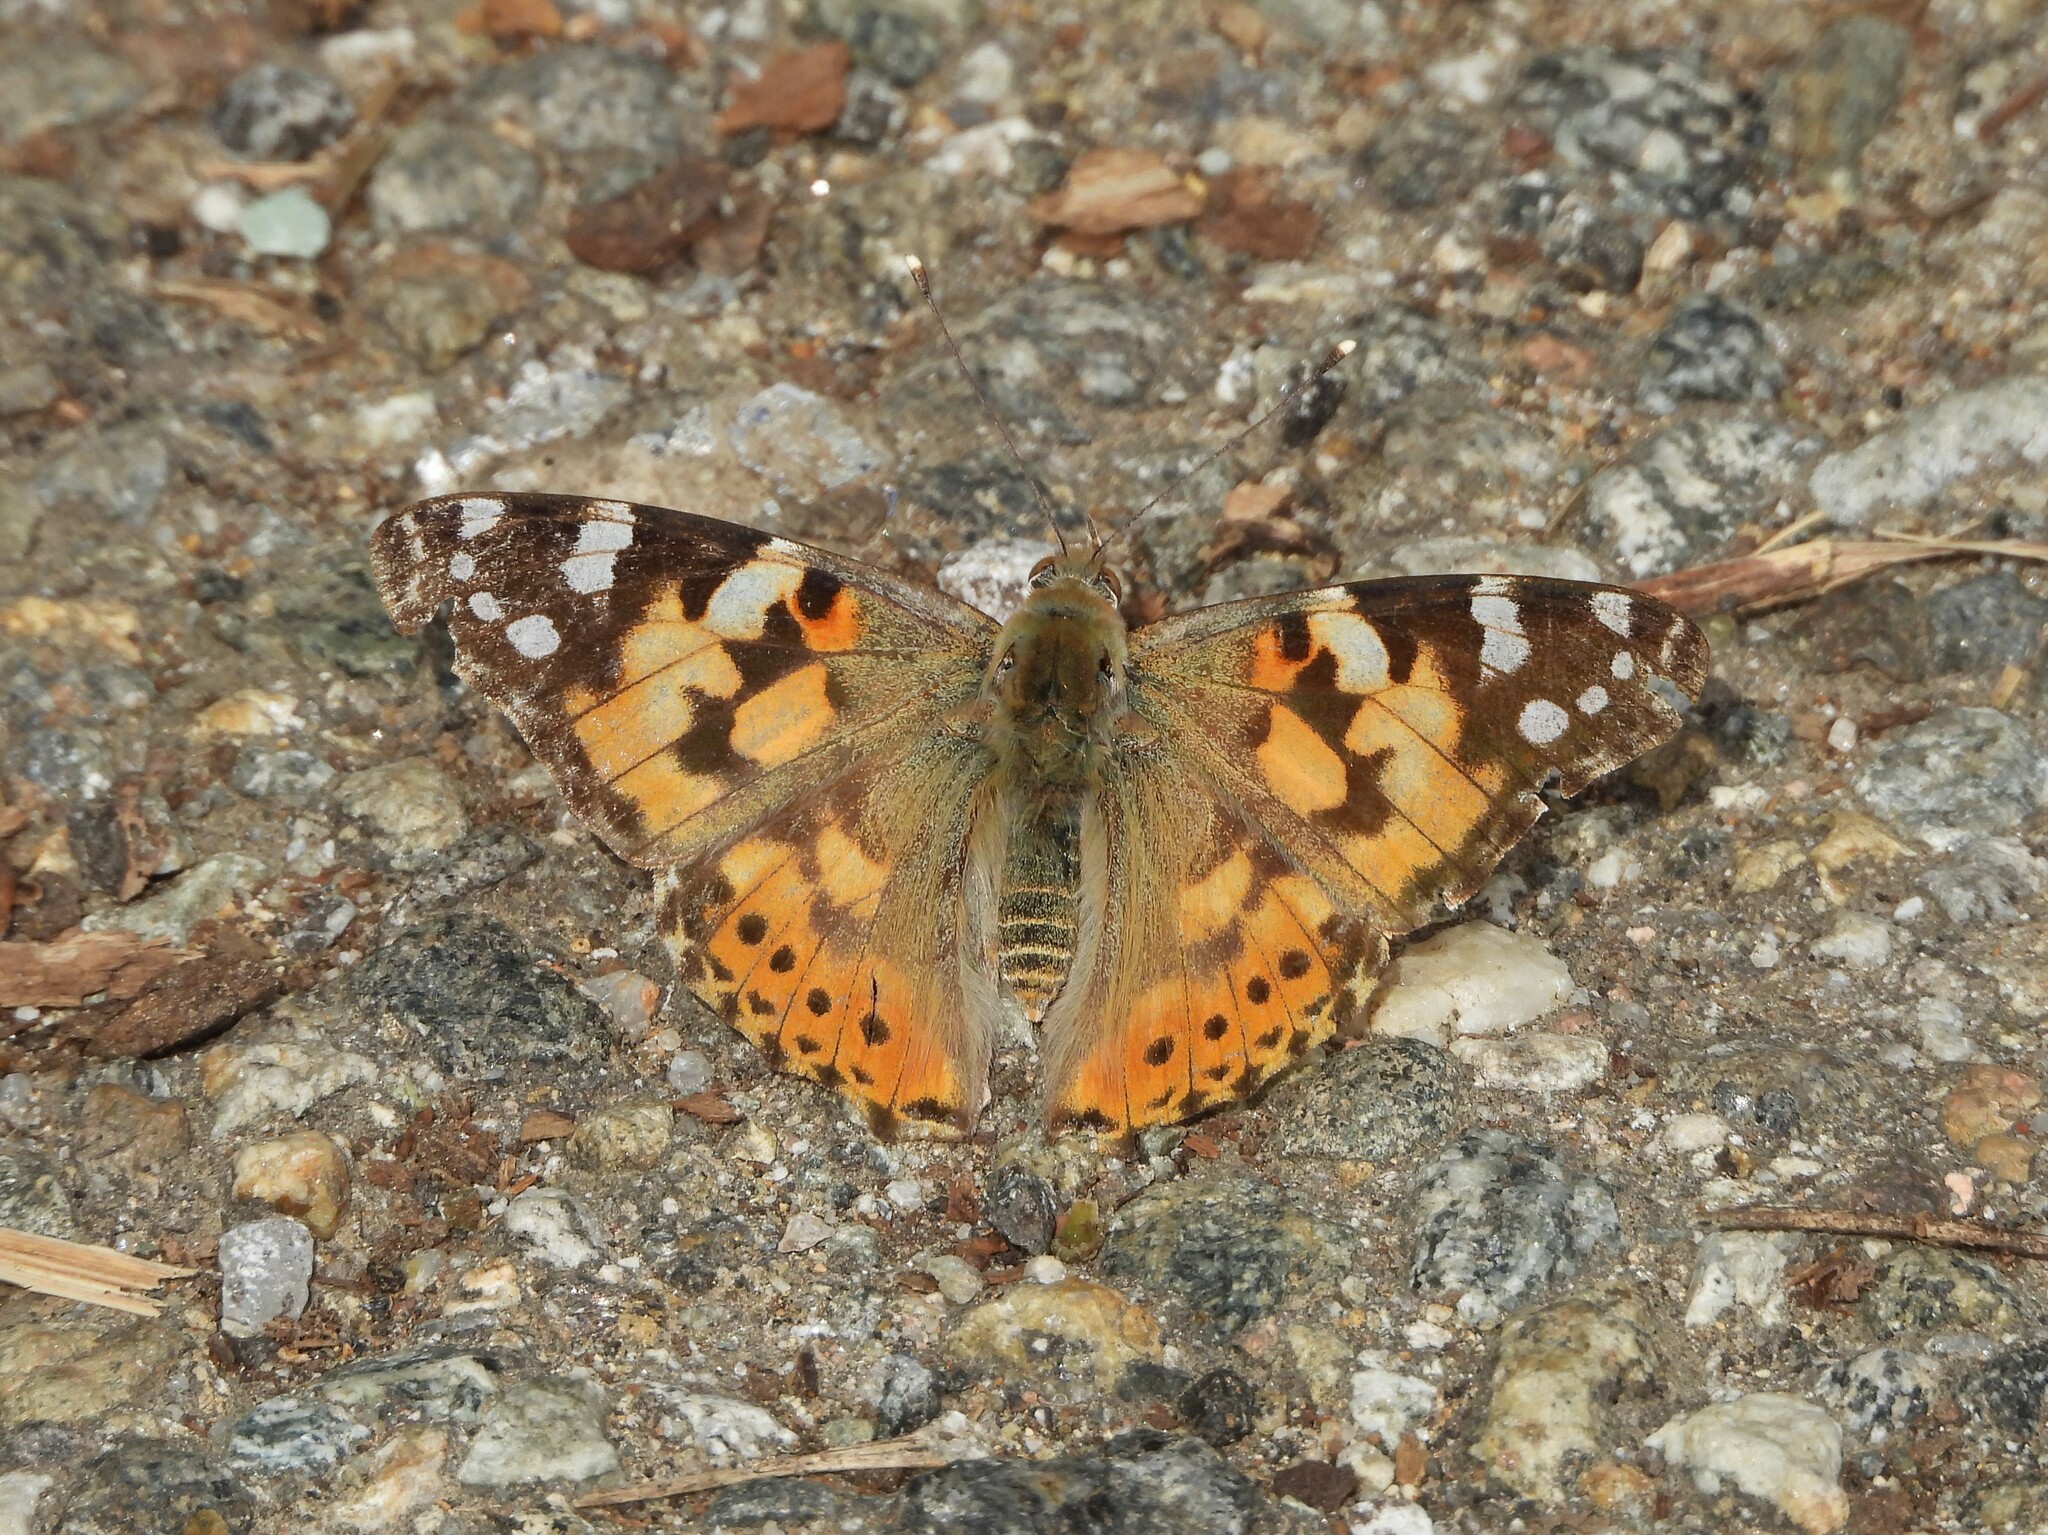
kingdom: Animalia
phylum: Arthropoda
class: Insecta
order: Lepidoptera
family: Nymphalidae
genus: Vanessa
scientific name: Vanessa cardui
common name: Painted lady
